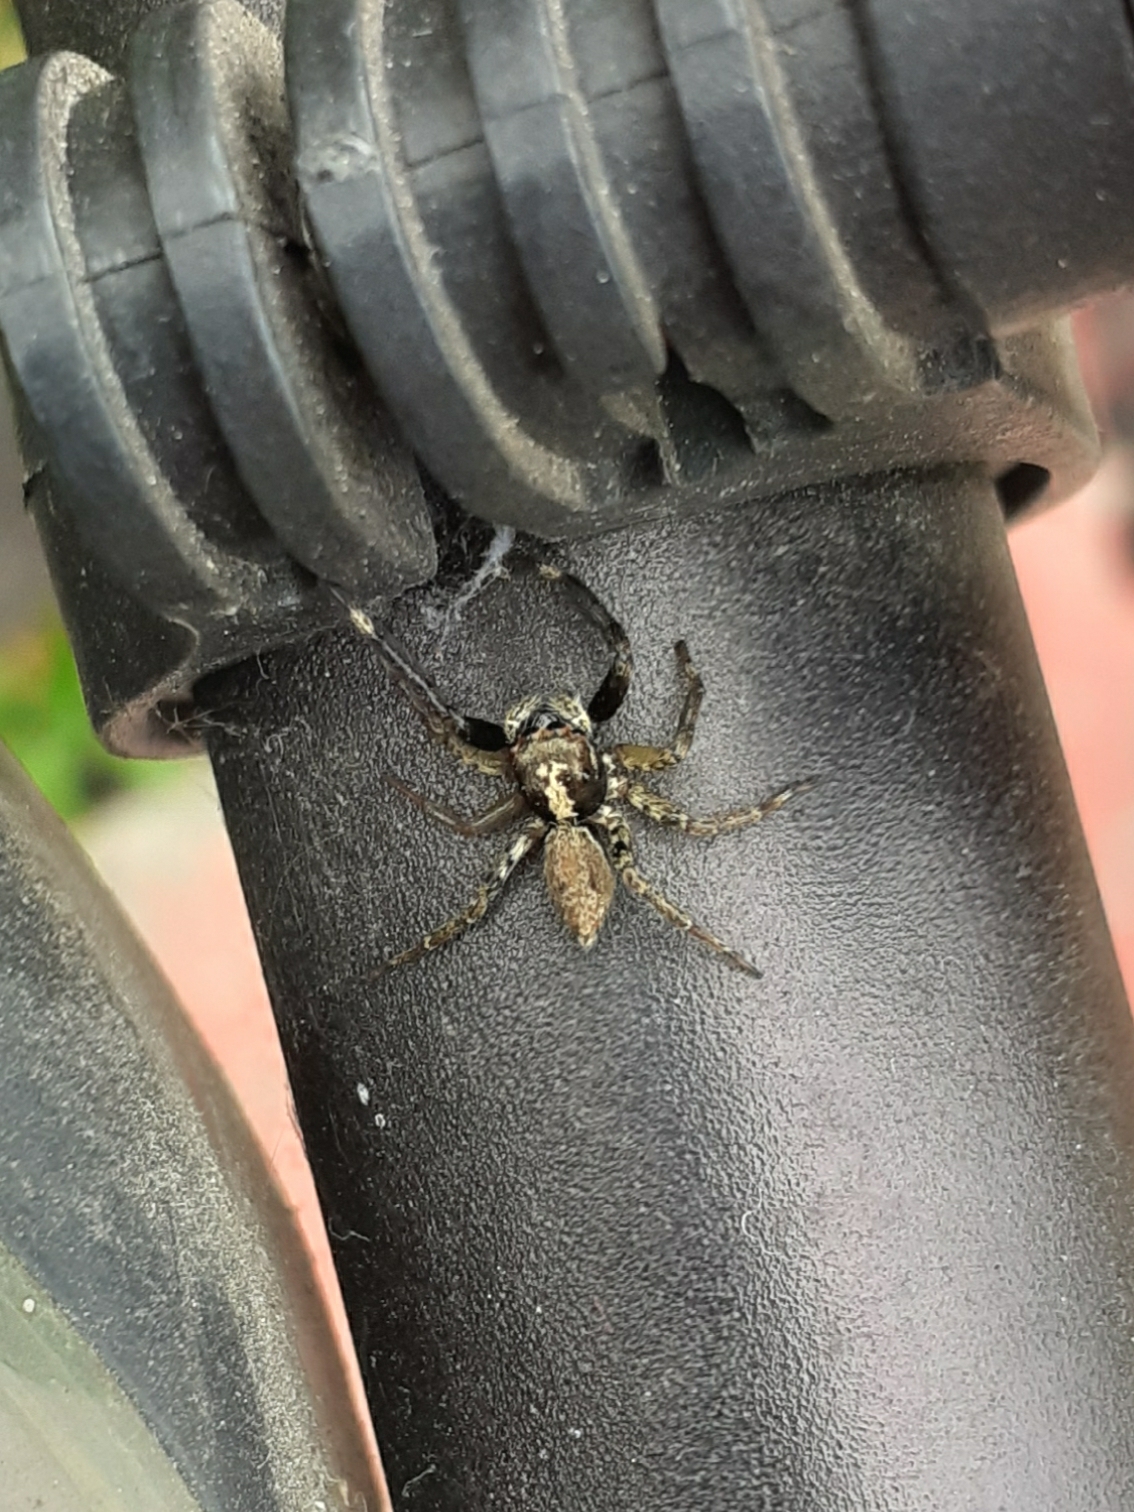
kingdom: Animalia
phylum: Arthropoda
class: Arachnida
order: Araneae
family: Salticidae
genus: Asaphobelis
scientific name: Asaphobelis physonychus
